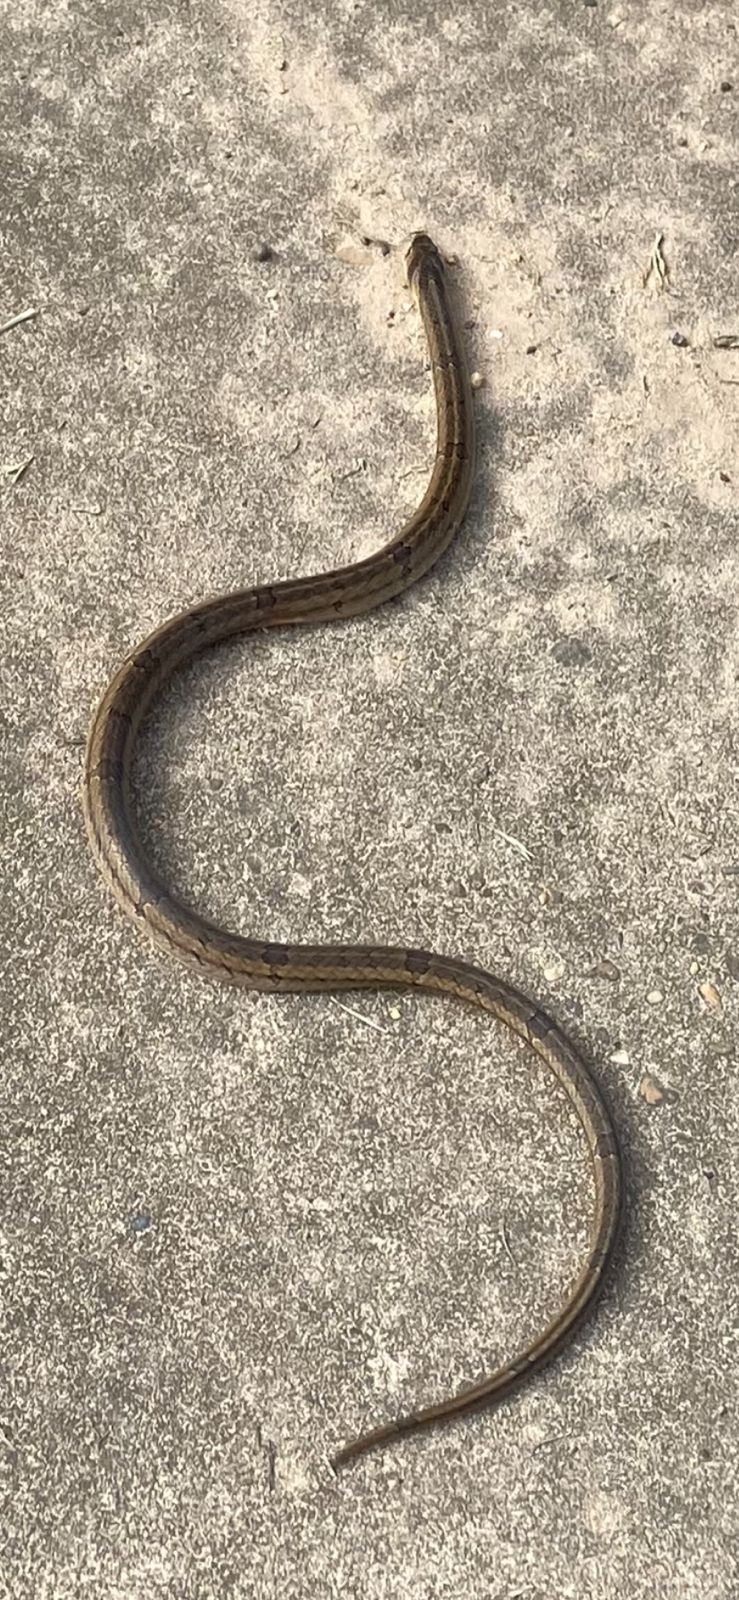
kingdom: Animalia
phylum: Chordata
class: Squamata
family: Colubridae
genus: Oligodon
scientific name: Oligodon fasciolatus
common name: Fasciolated kukri snake
